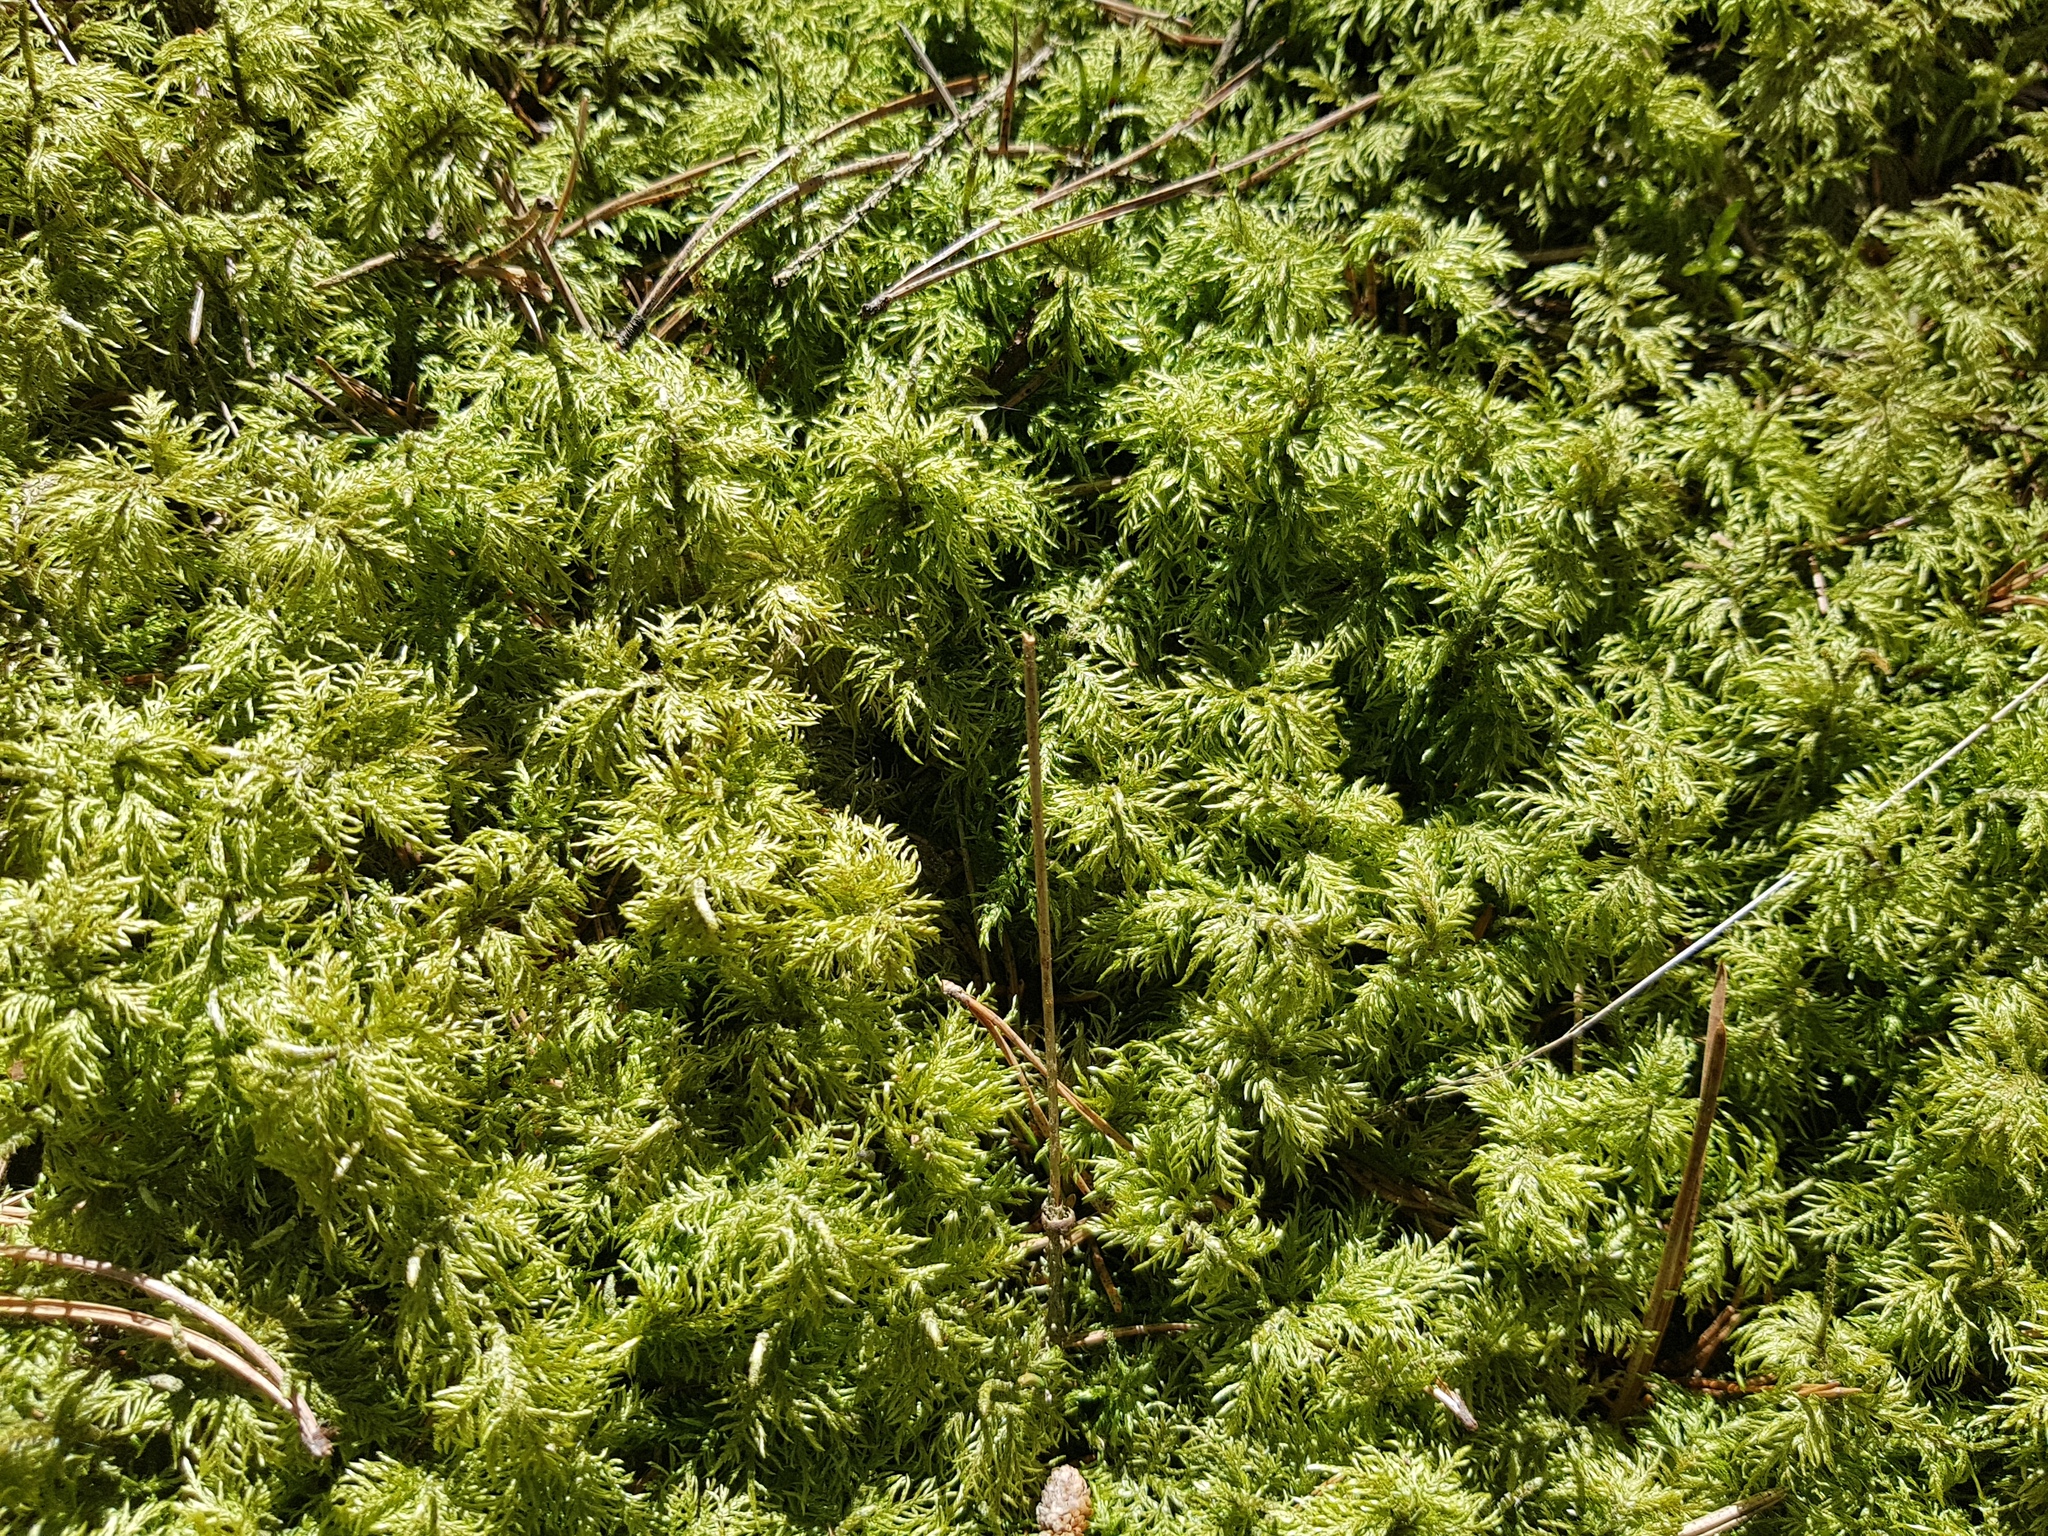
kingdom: Plantae
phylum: Bryophyta
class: Bryopsida
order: Hypnales
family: Hylocomiaceae
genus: Hylocomium
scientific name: Hylocomium splendens
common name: Stairstep moss
